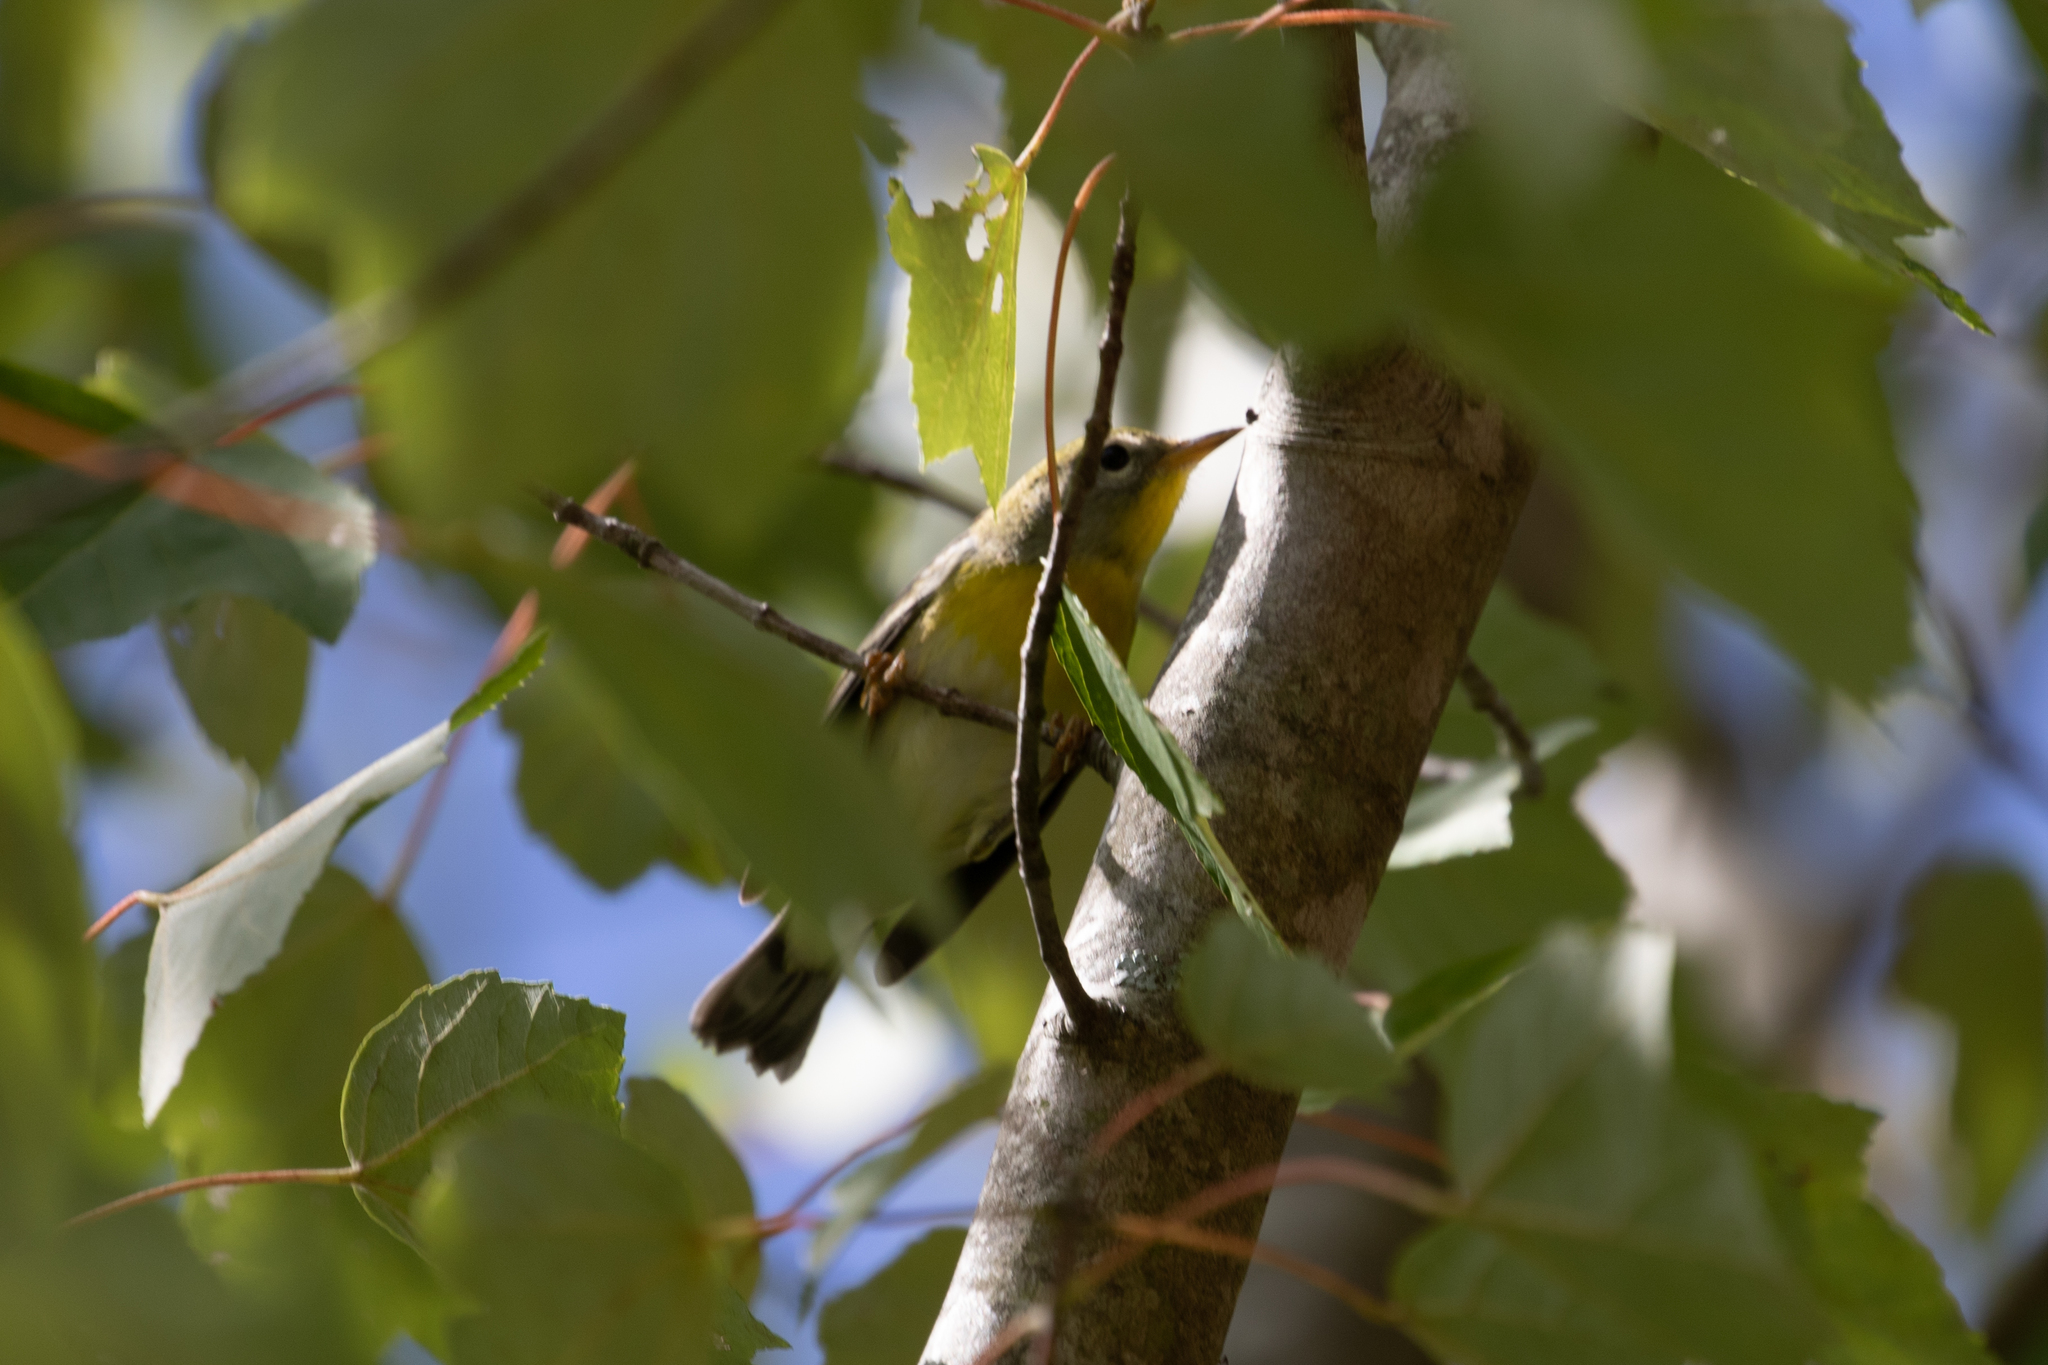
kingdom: Animalia
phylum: Chordata
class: Aves
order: Passeriformes
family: Parulidae
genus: Setophaga
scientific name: Setophaga americana
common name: Northern parula
